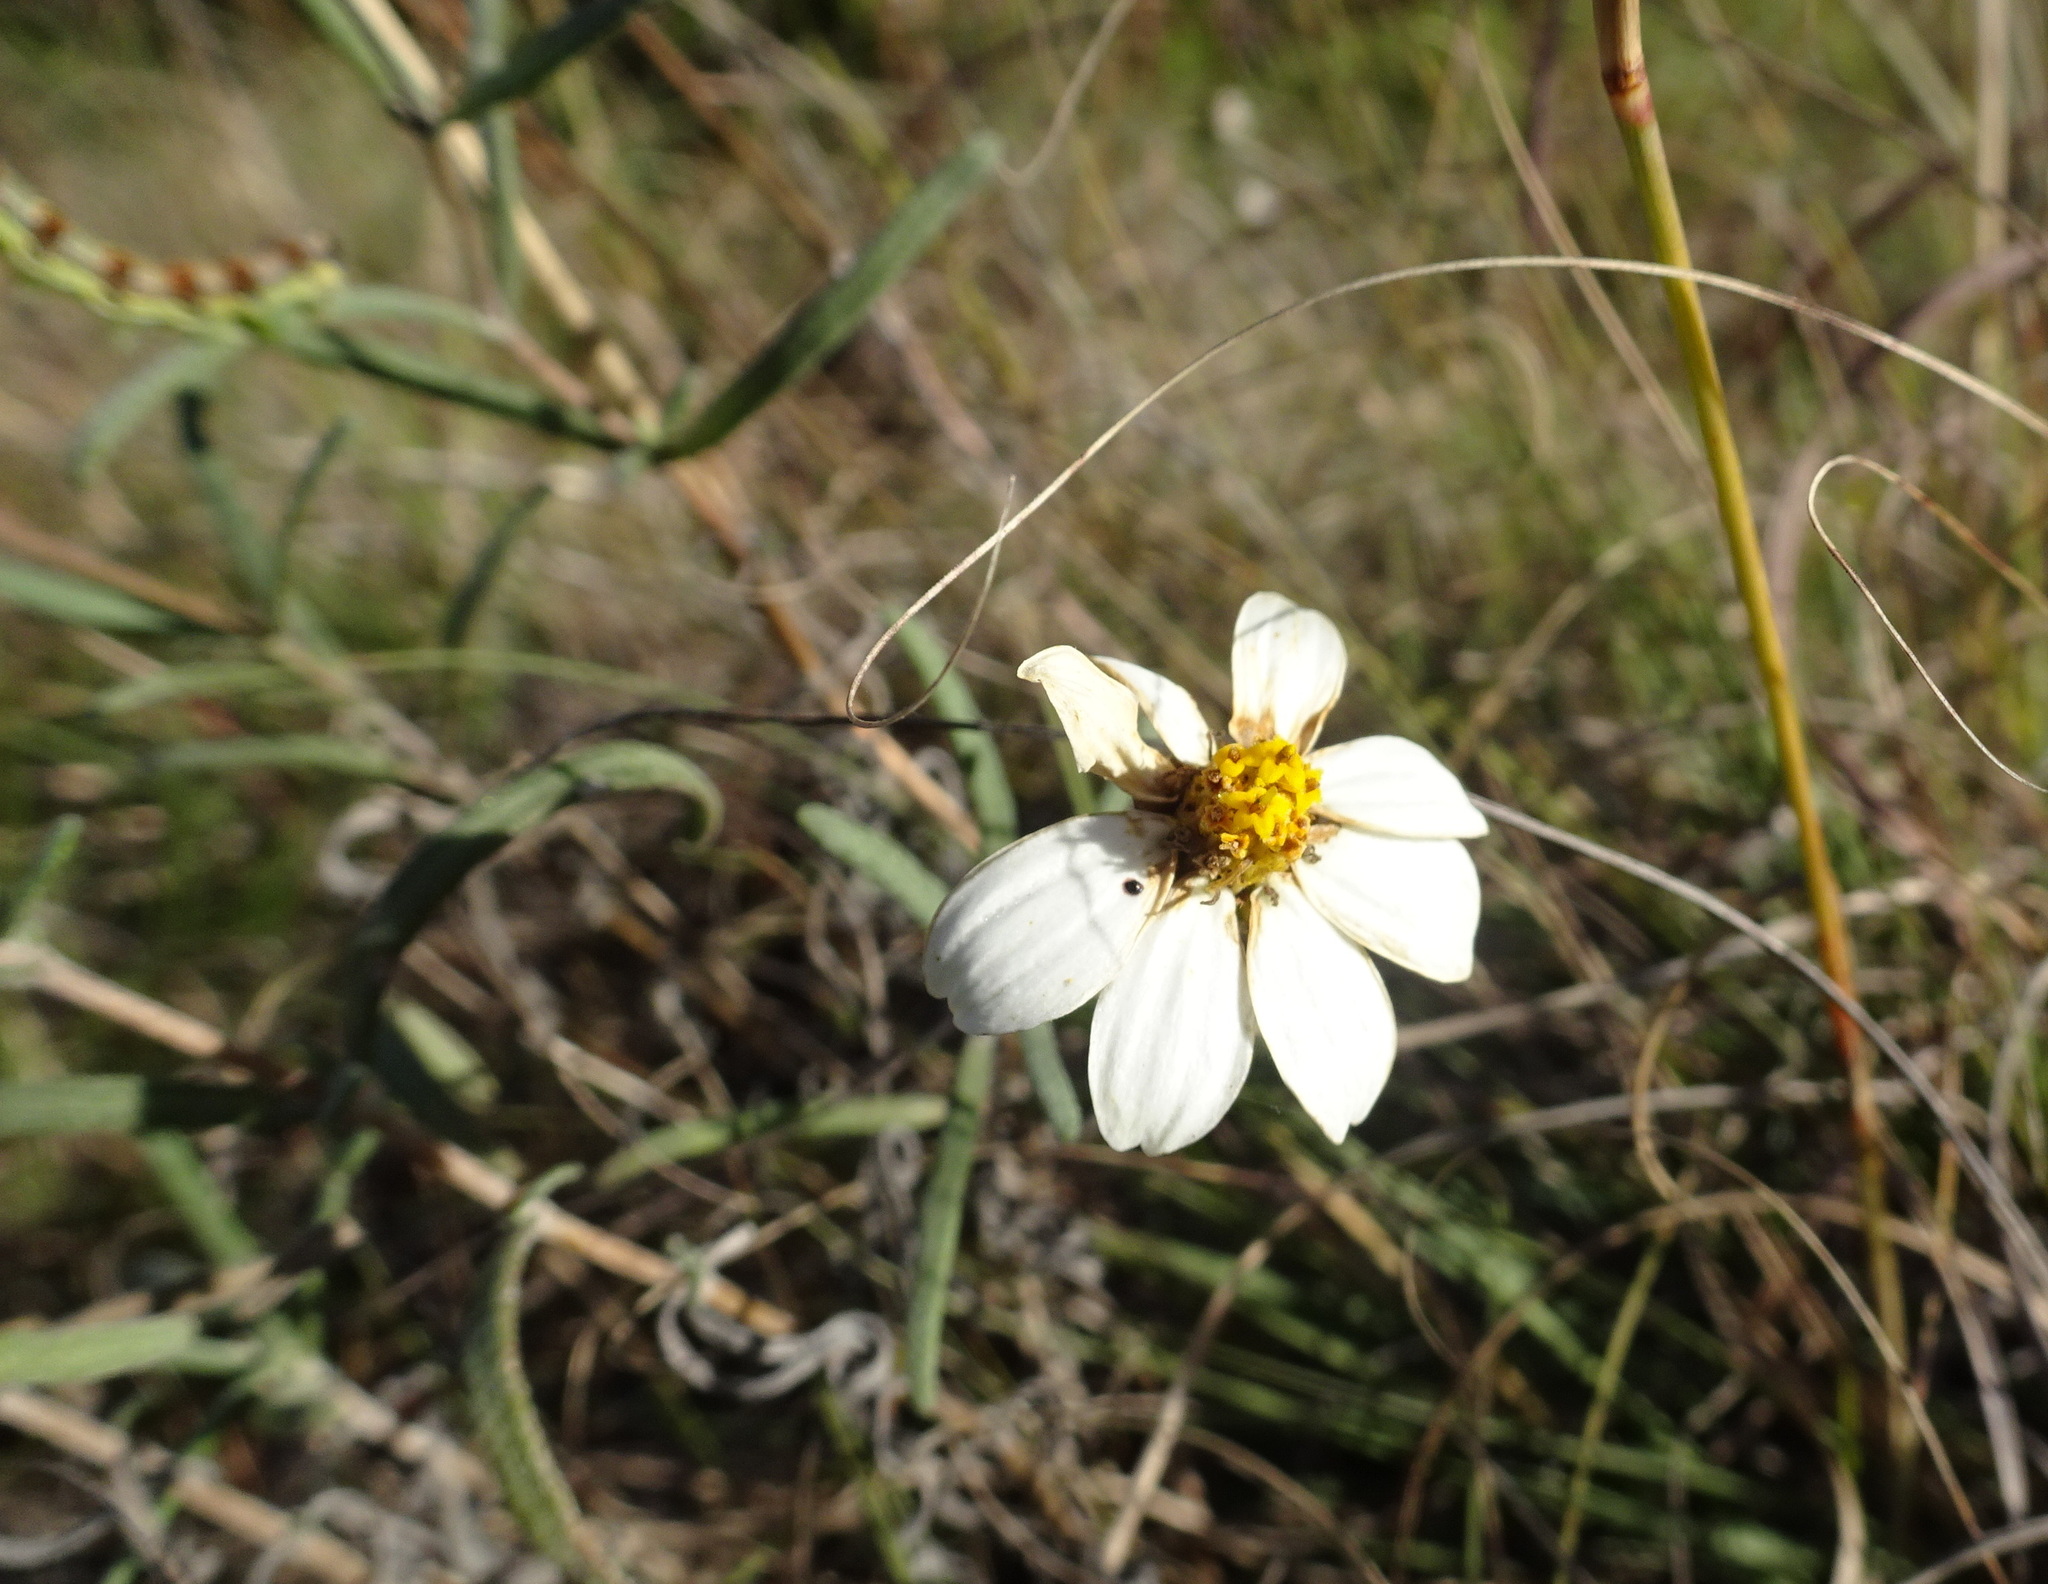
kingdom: Plantae
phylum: Tracheophyta
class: Magnoliopsida
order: Asterales
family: Asteraceae
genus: Melampodium
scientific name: Melampodium leucanthum
